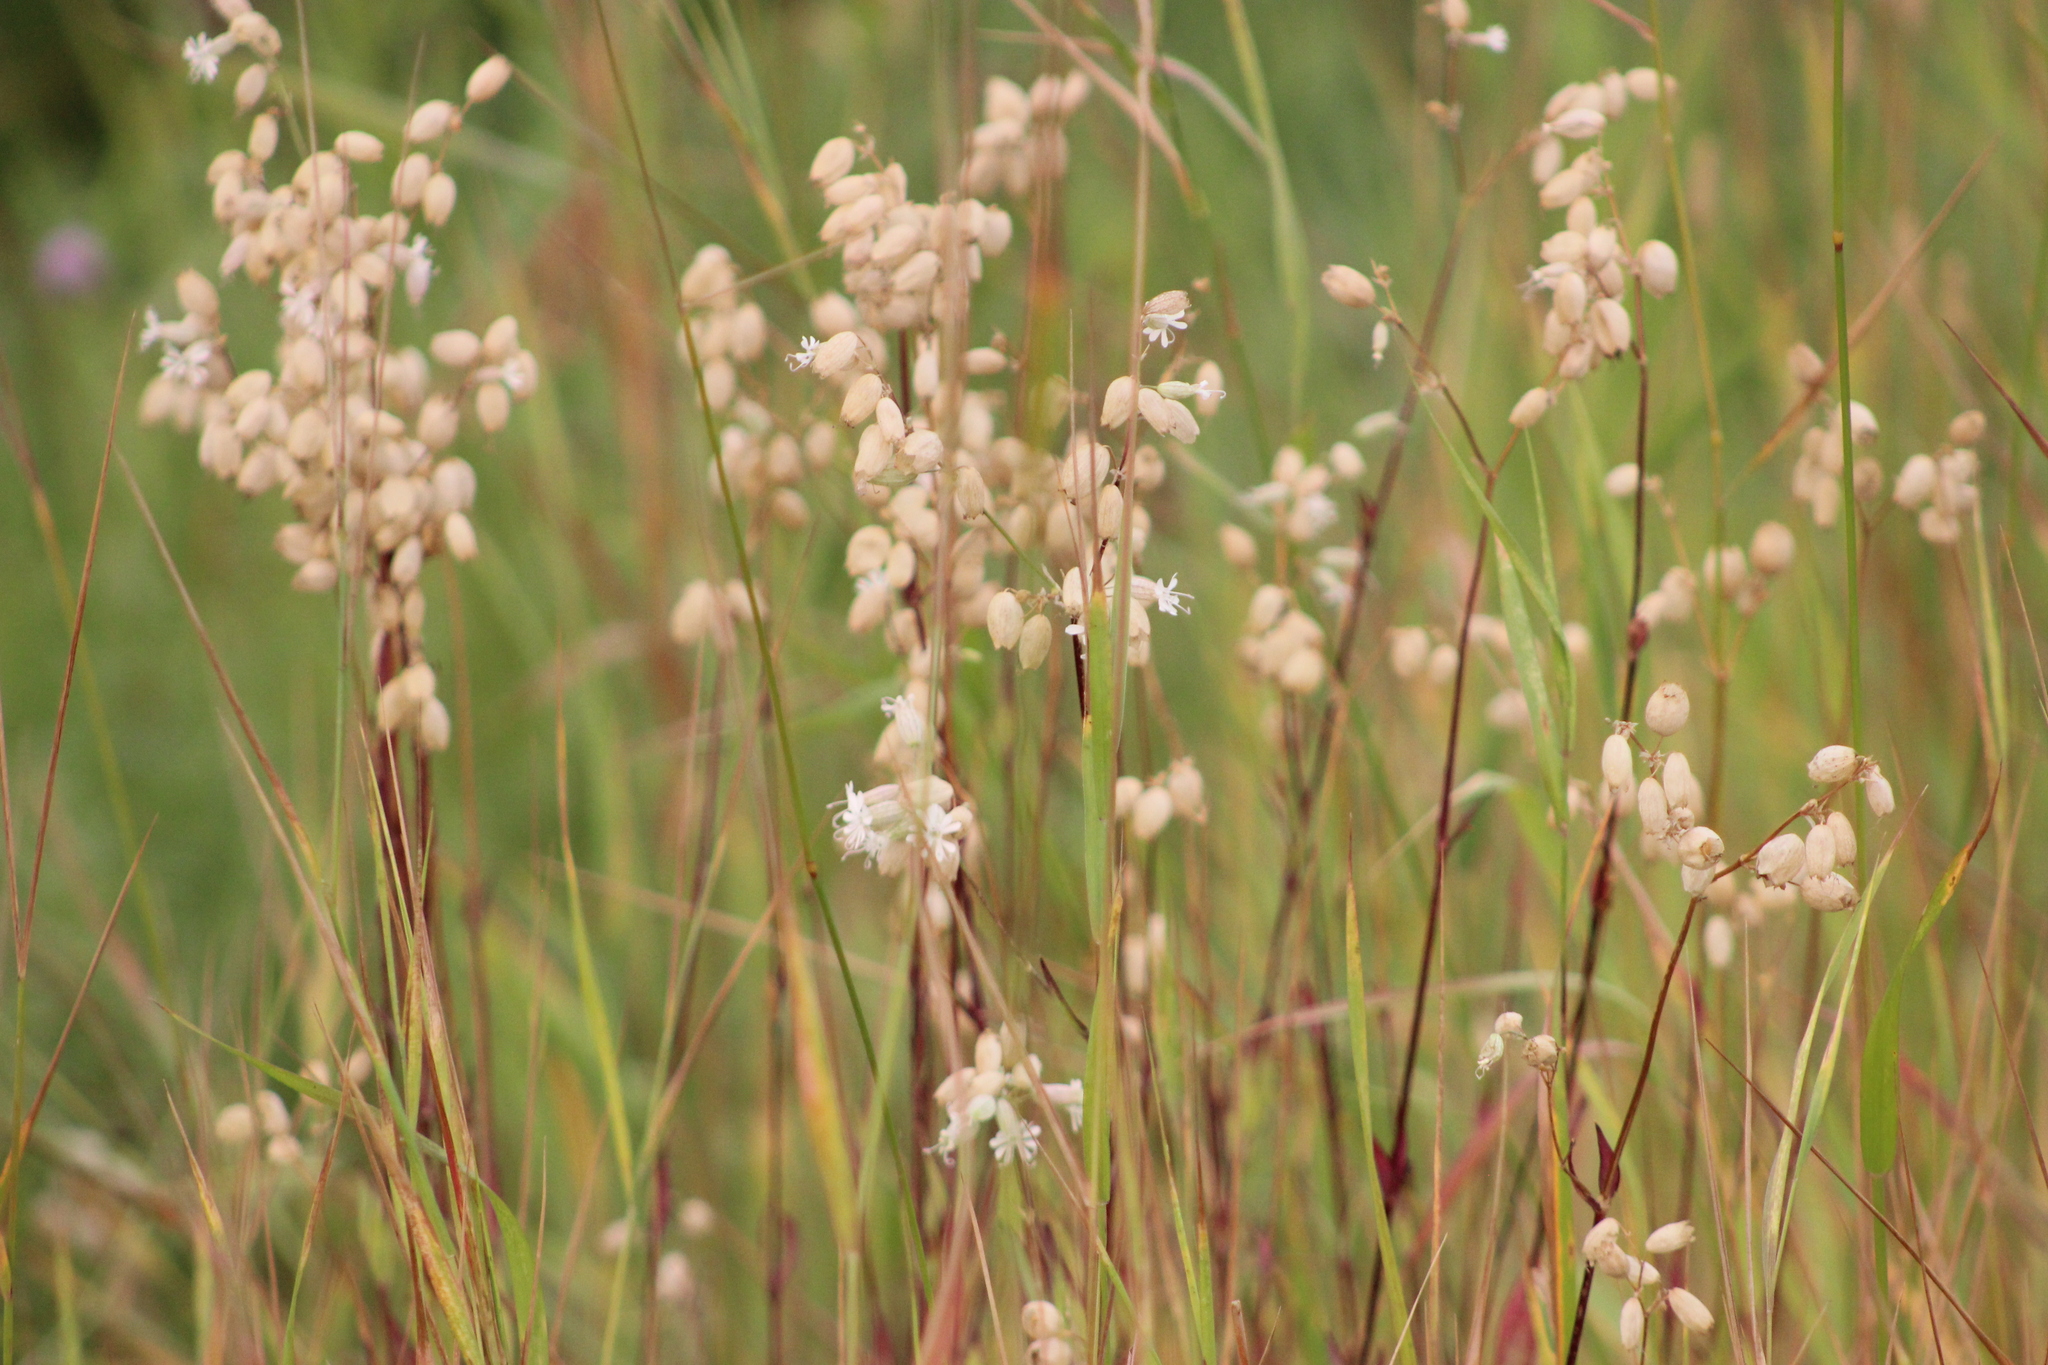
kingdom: Plantae
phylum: Tracheophyta
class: Magnoliopsida
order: Caryophyllales
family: Caryophyllaceae
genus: Silene
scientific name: Silene vulgaris
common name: Bladder campion
